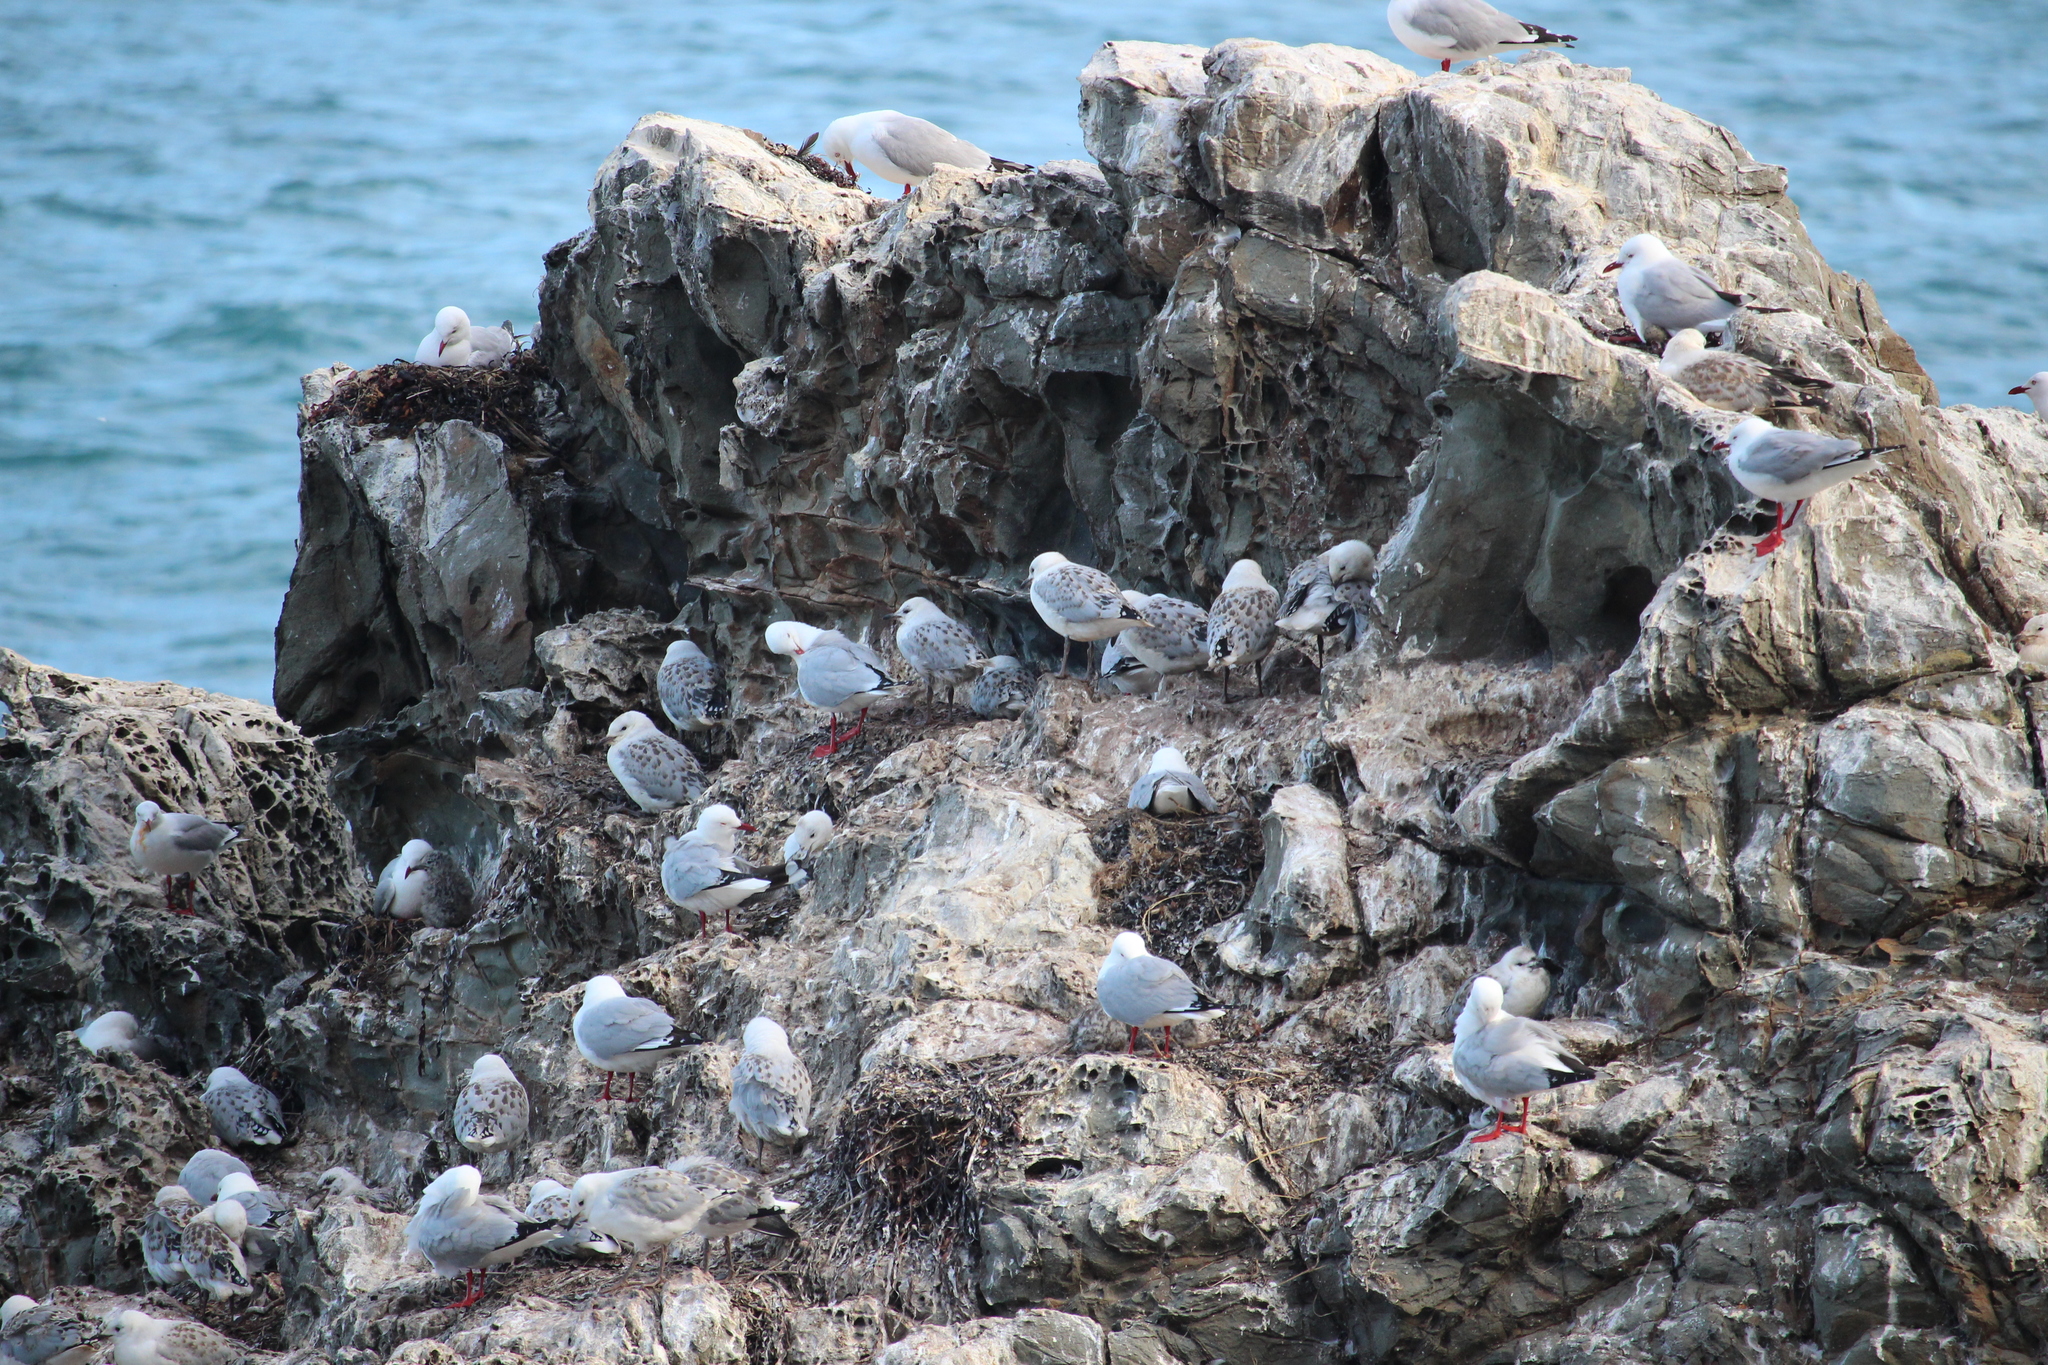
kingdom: Animalia
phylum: Chordata
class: Aves
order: Charadriiformes
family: Laridae
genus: Chroicocephalus
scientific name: Chroicocephalus novaehollandiae
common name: Silver gull
